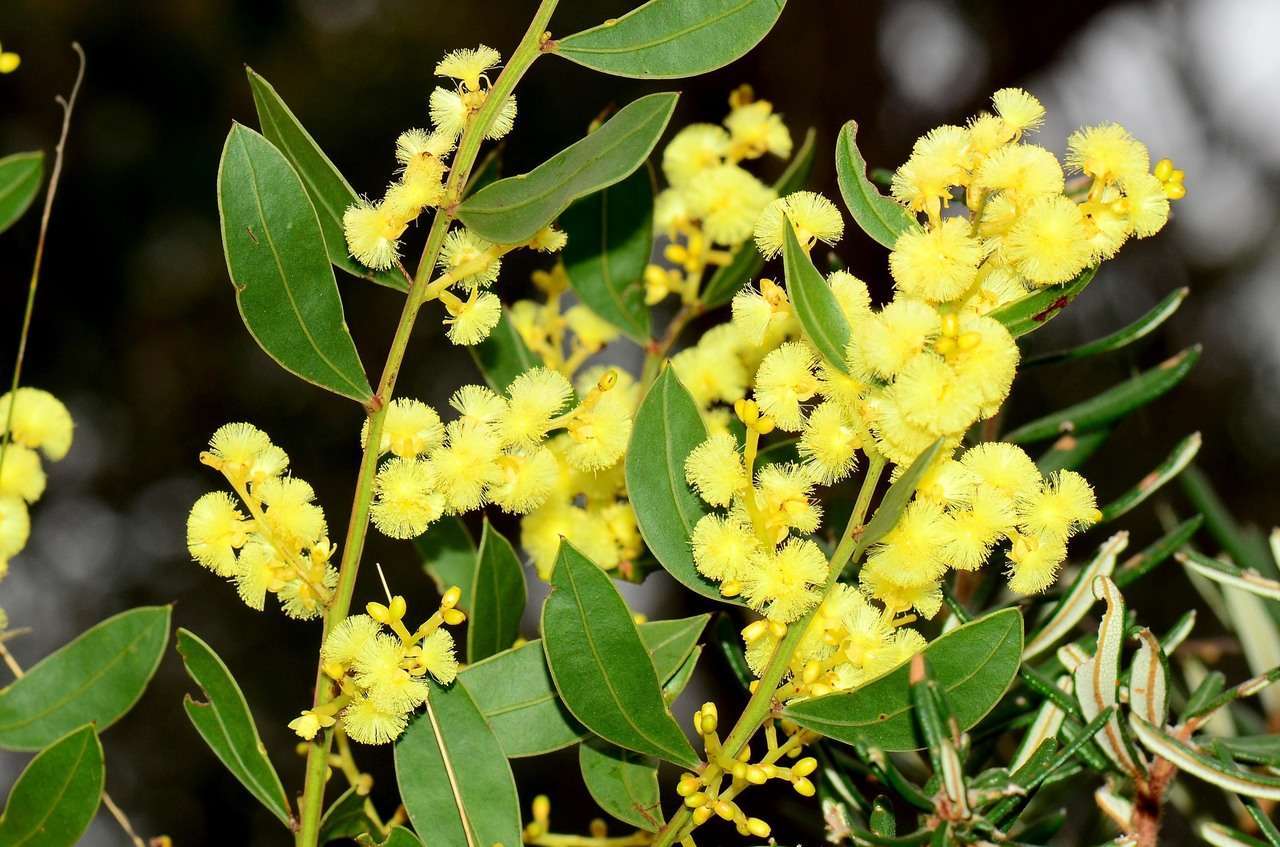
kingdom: Plantae
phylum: Tracheophyta
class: Magnoliopsida
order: Fabales
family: Fabaceae
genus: Acacia
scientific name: Acacia myrtifolia
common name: Myrtle wattle
